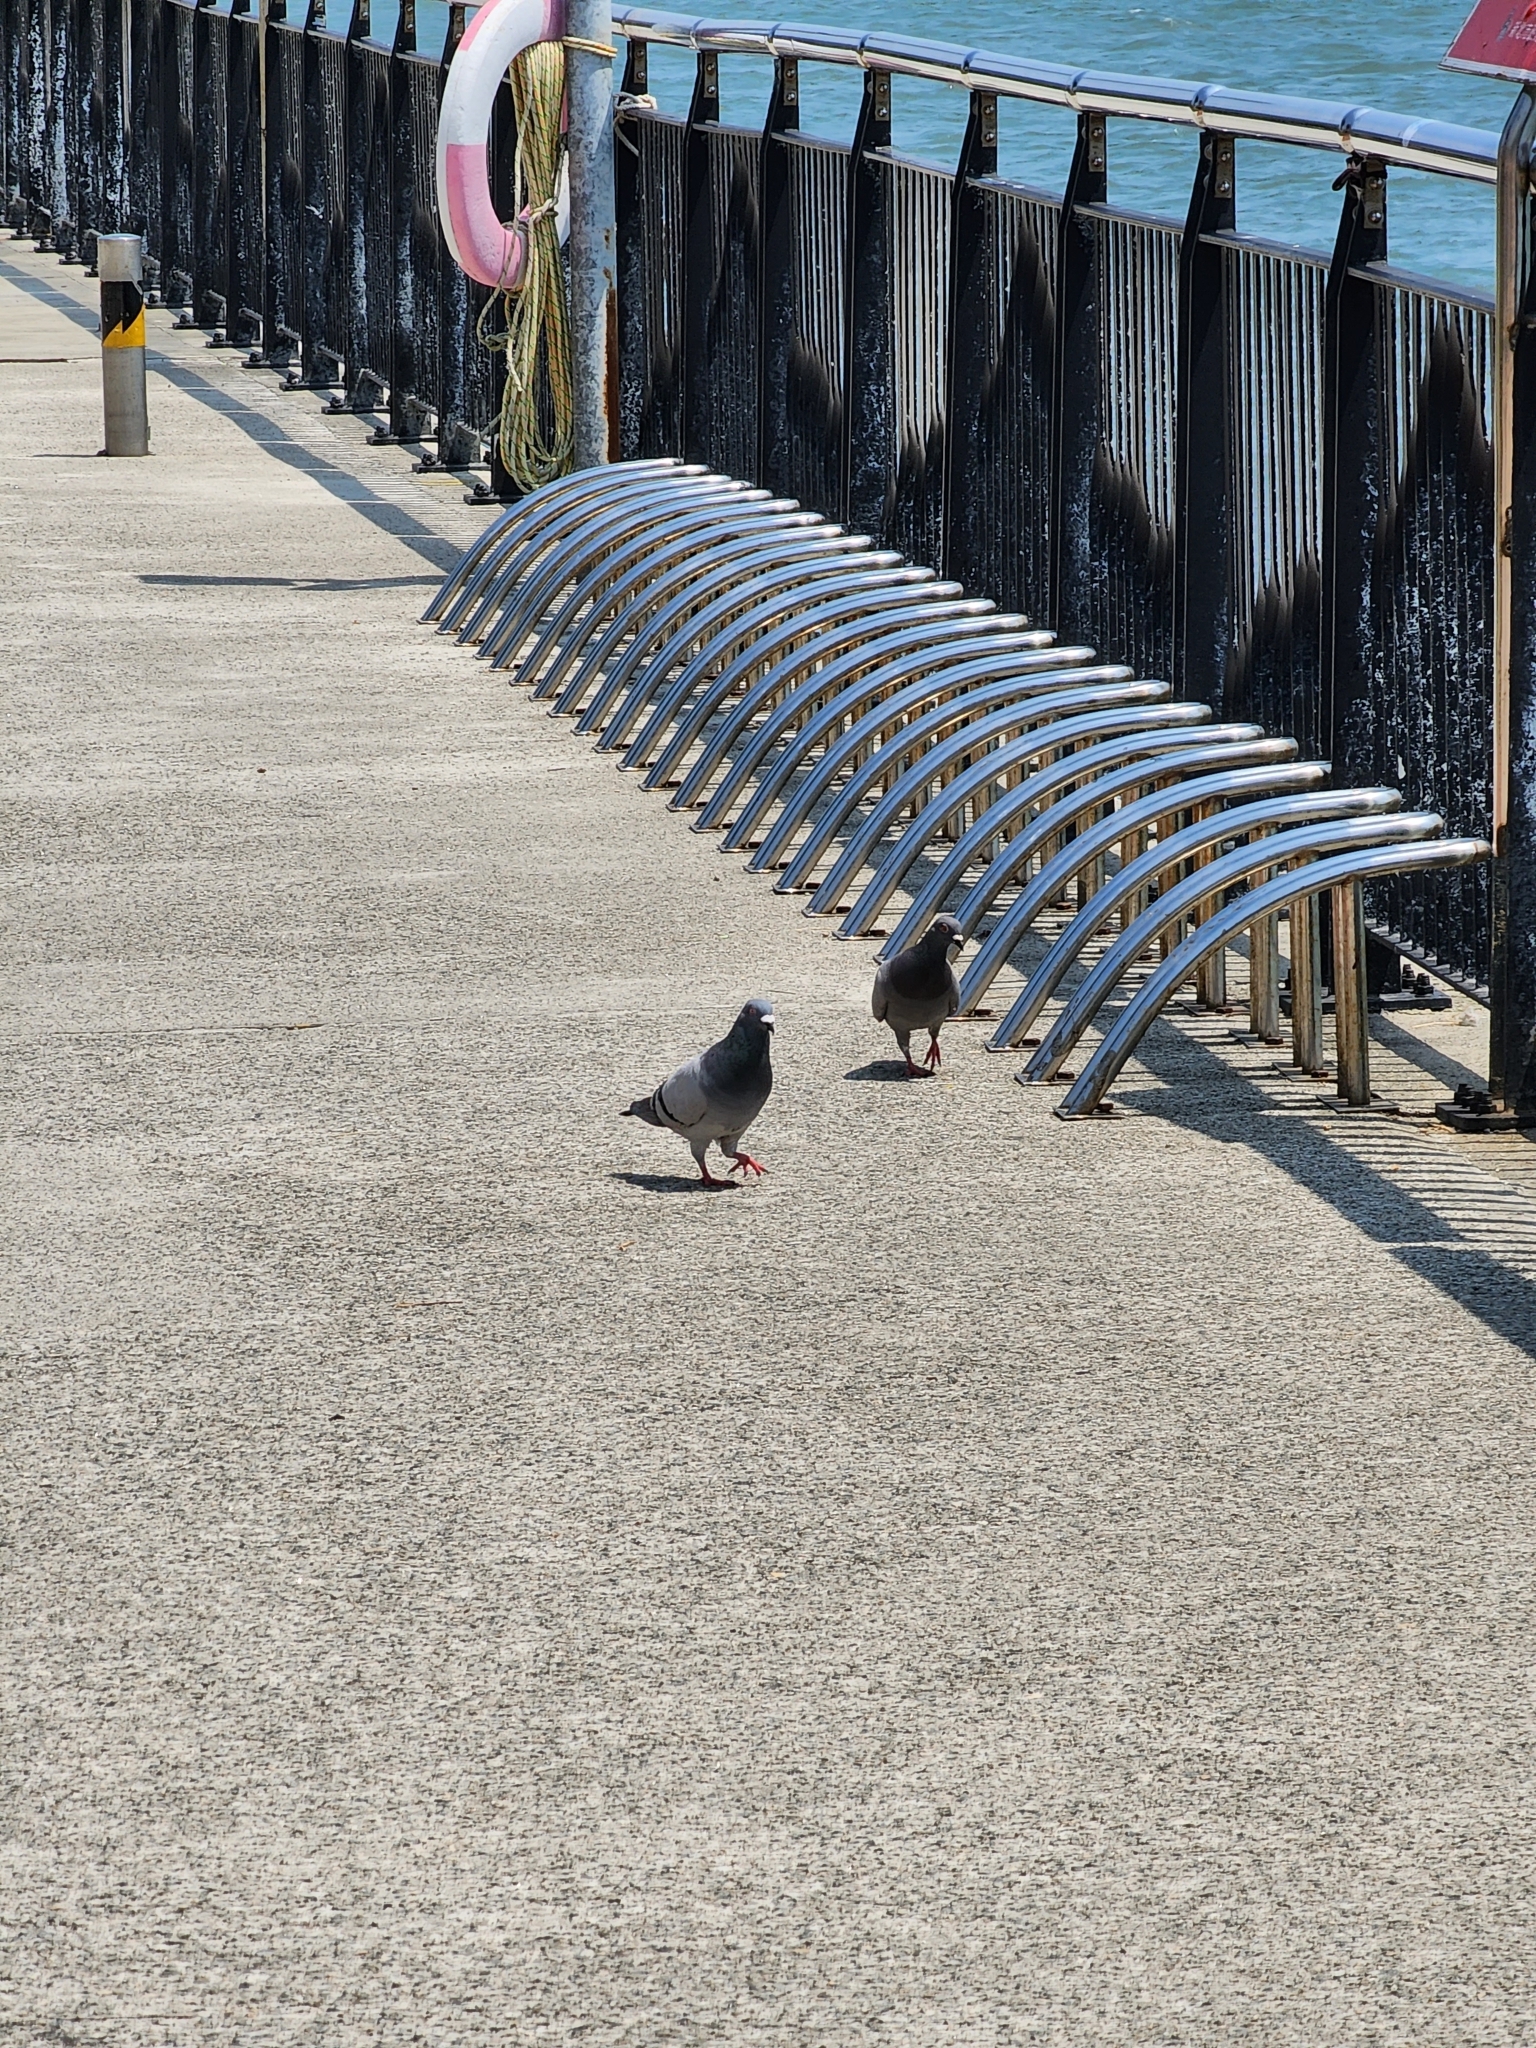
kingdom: Animalia
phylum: Chordata
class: Aves
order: Columbiformes
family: Columbidae
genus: Columba
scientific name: Columba livia
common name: Rock pigeon
